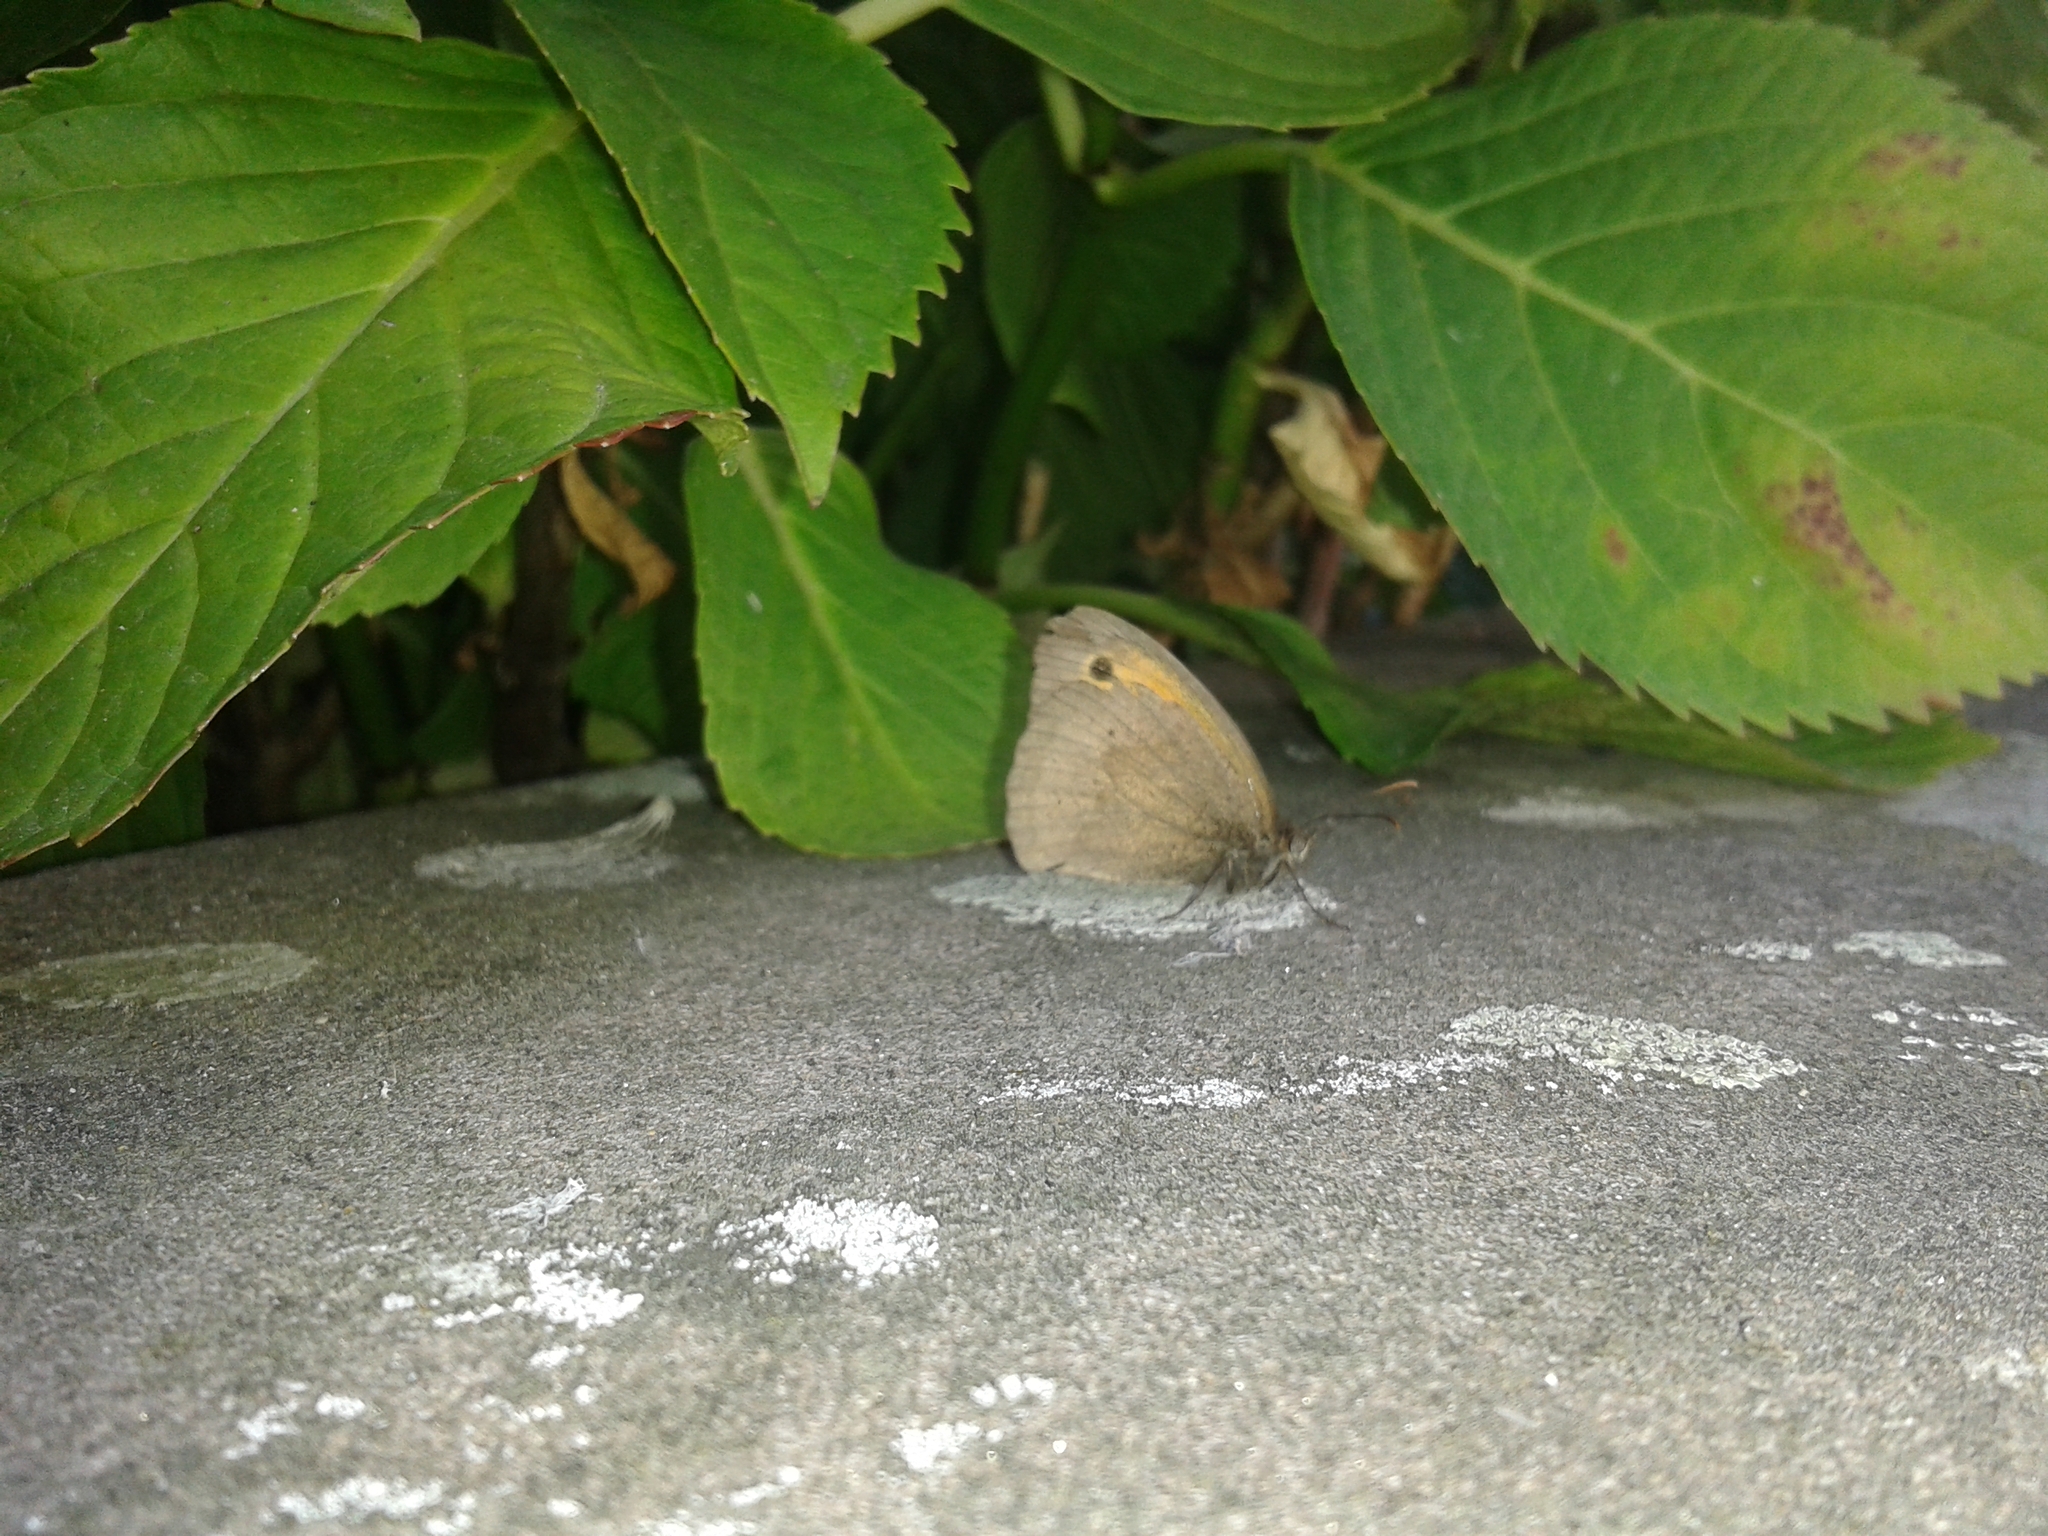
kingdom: Animalia
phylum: Arthropoda
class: Insecta
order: Lepidoptera
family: Nymphalidae
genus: Maniola
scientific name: Maniola jurtina
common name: Meadow brown
